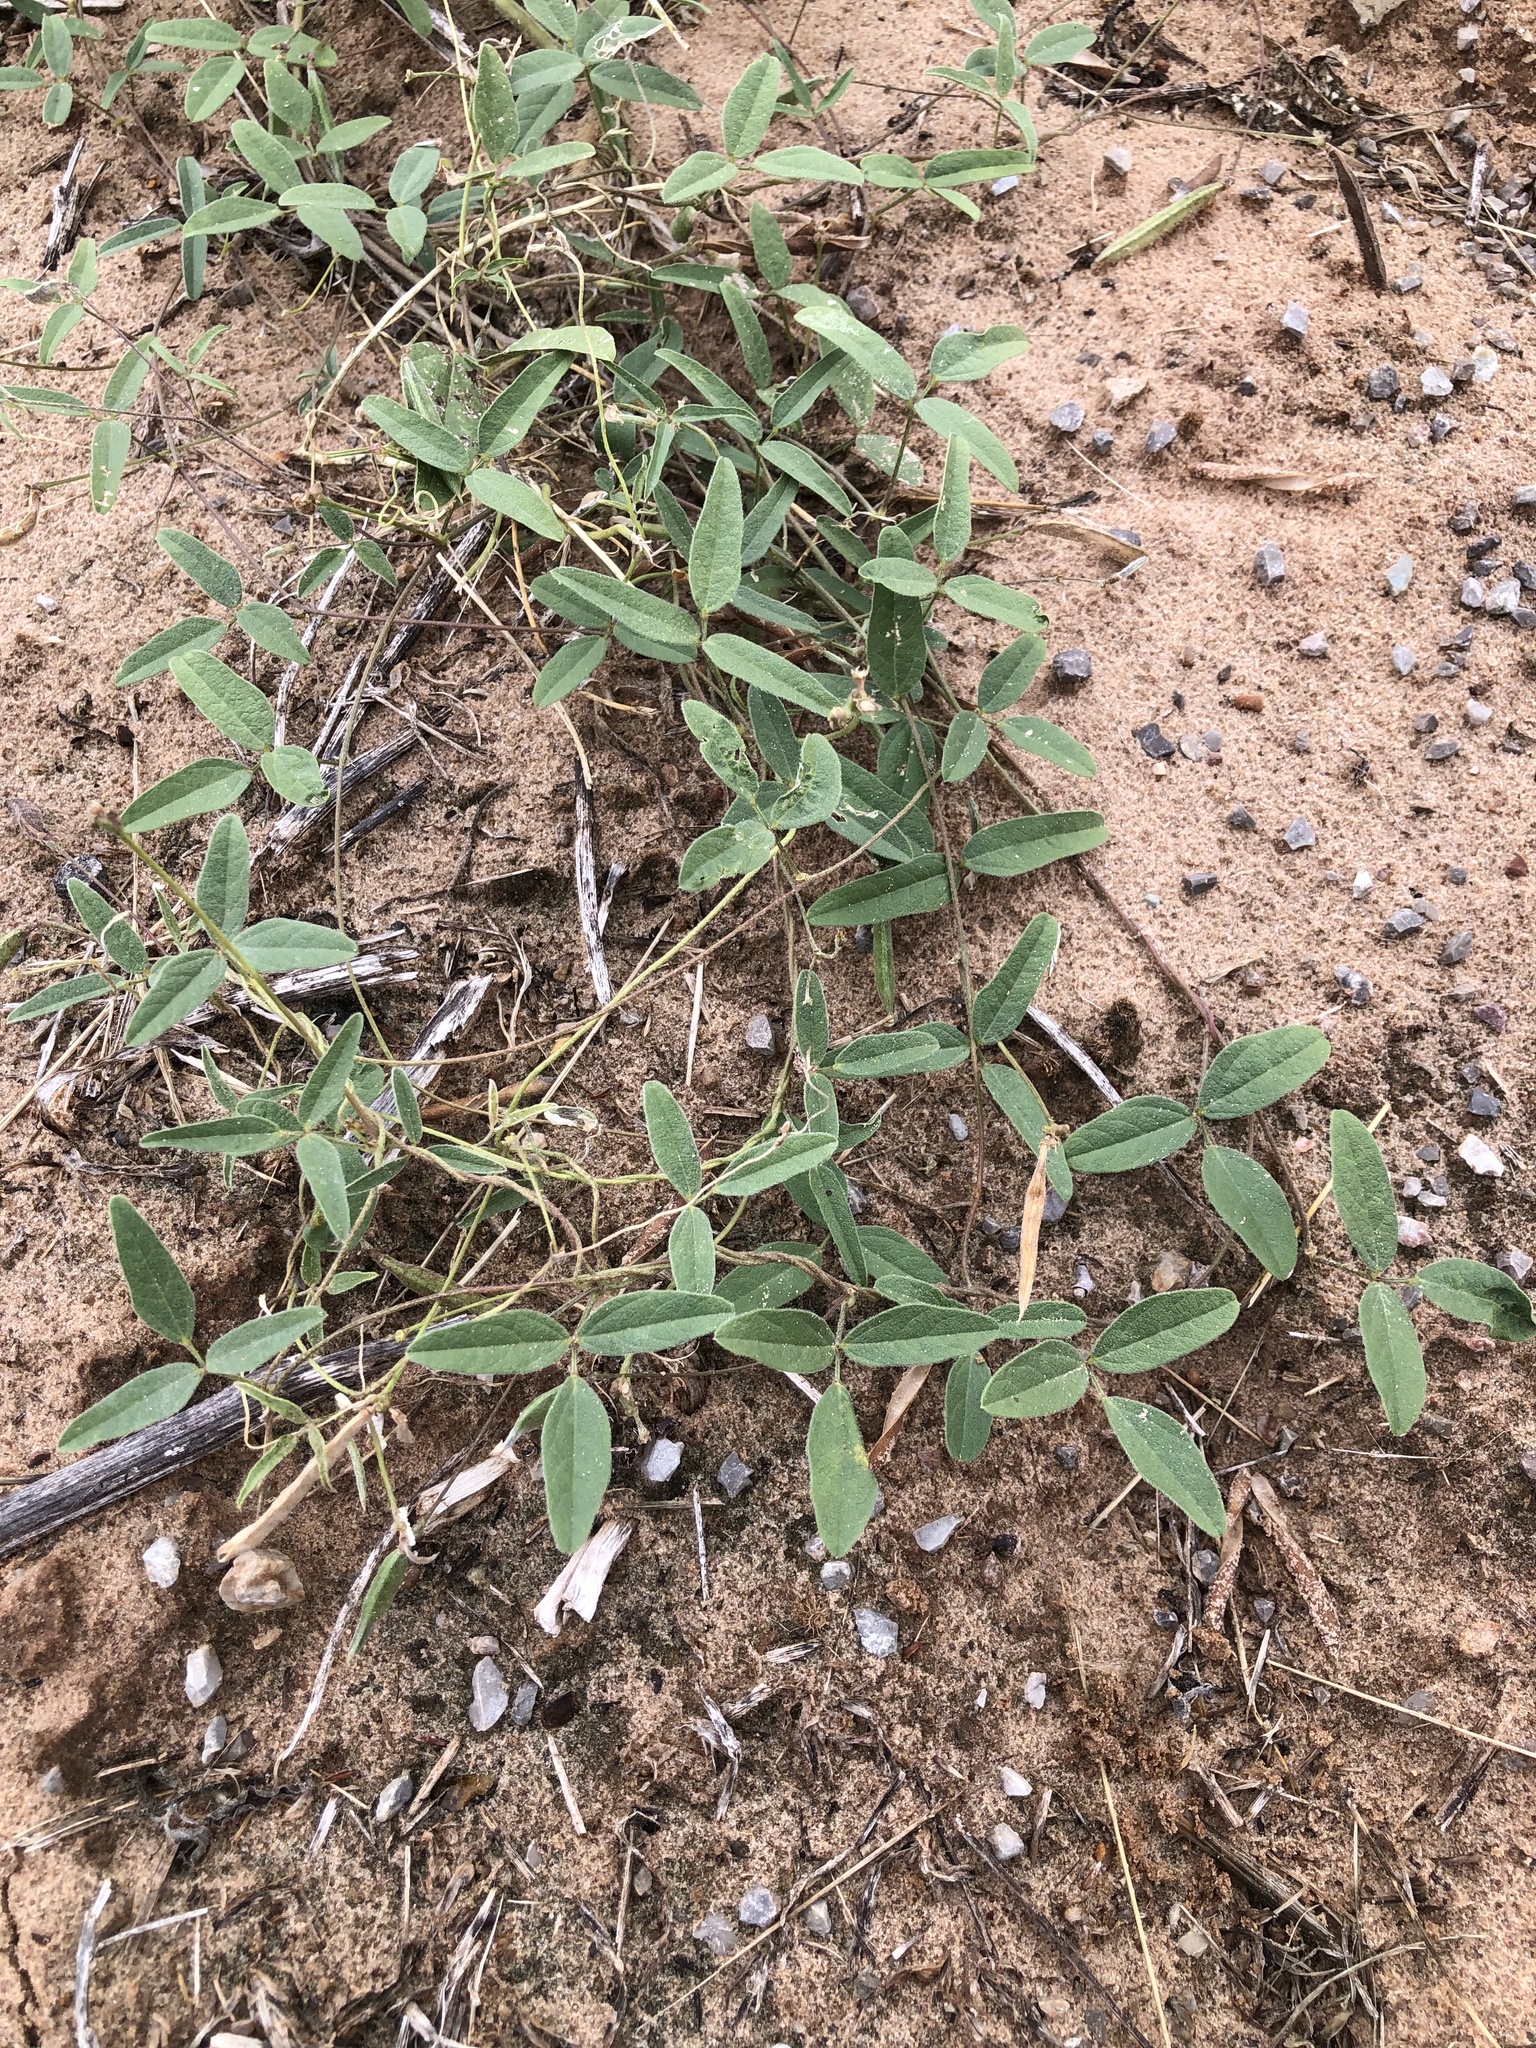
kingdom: Plantae
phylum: Tracheophyta
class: Magnoliopsida
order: Fabales
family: Fabaceae
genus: Strophostyles
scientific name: Strophostyles leiosperma
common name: Smooth-seed wild bean
